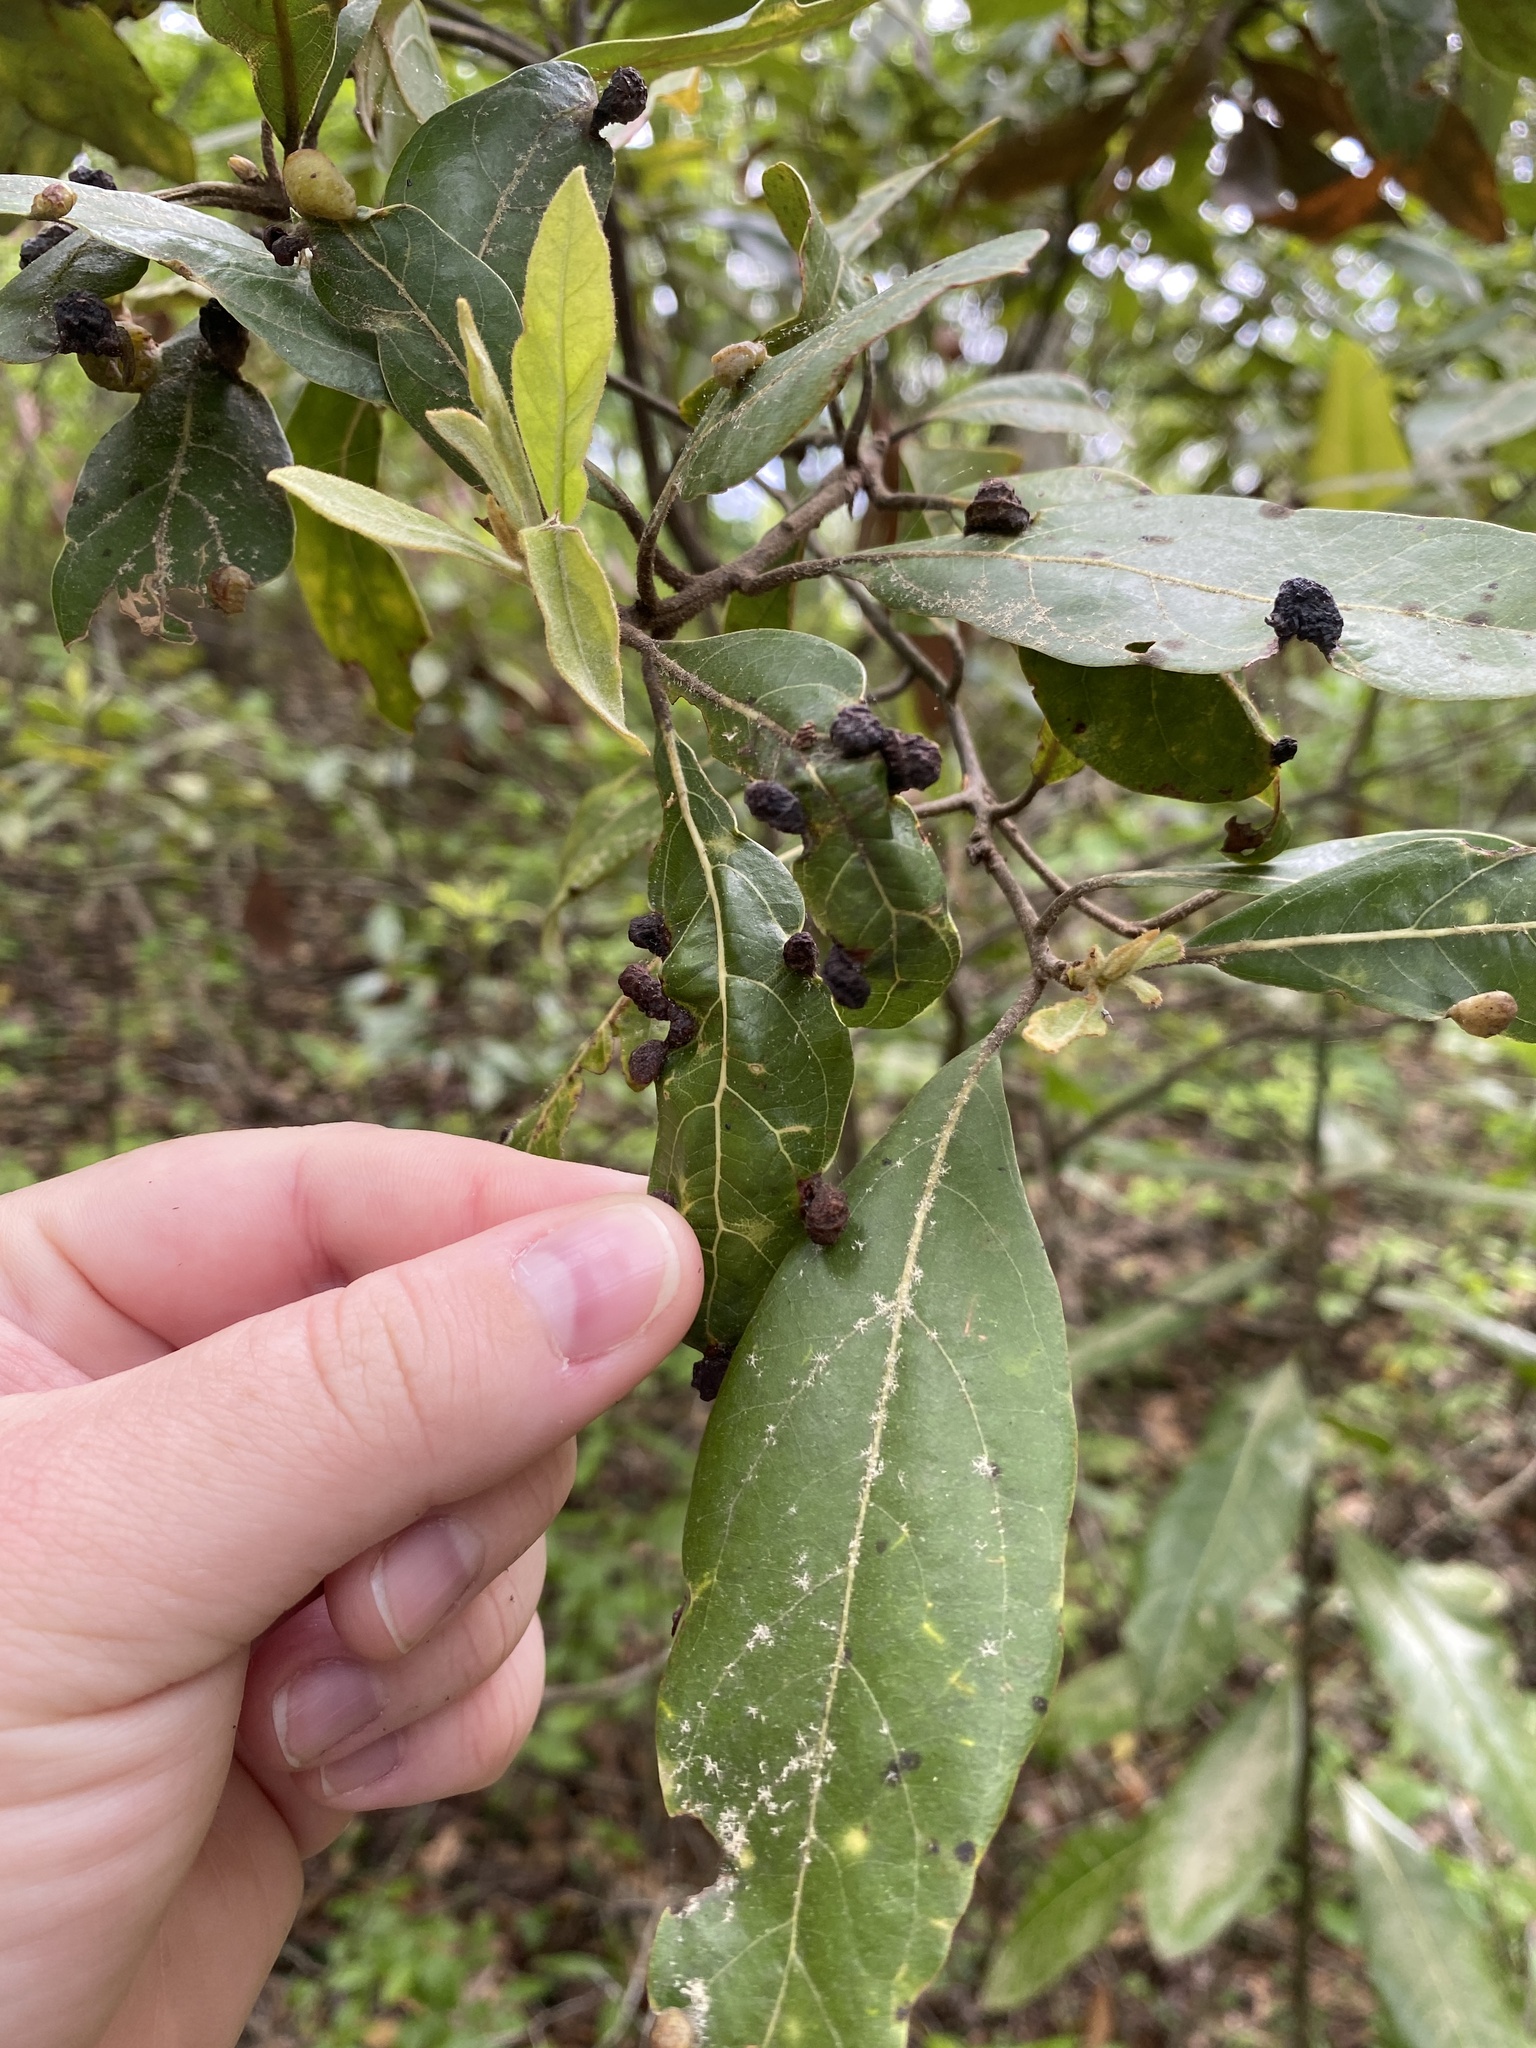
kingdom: Animalia
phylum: Arthropoda
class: Insecta
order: Hemiptera
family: Triozidae
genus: Trioza
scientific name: Trioza magnoliae
